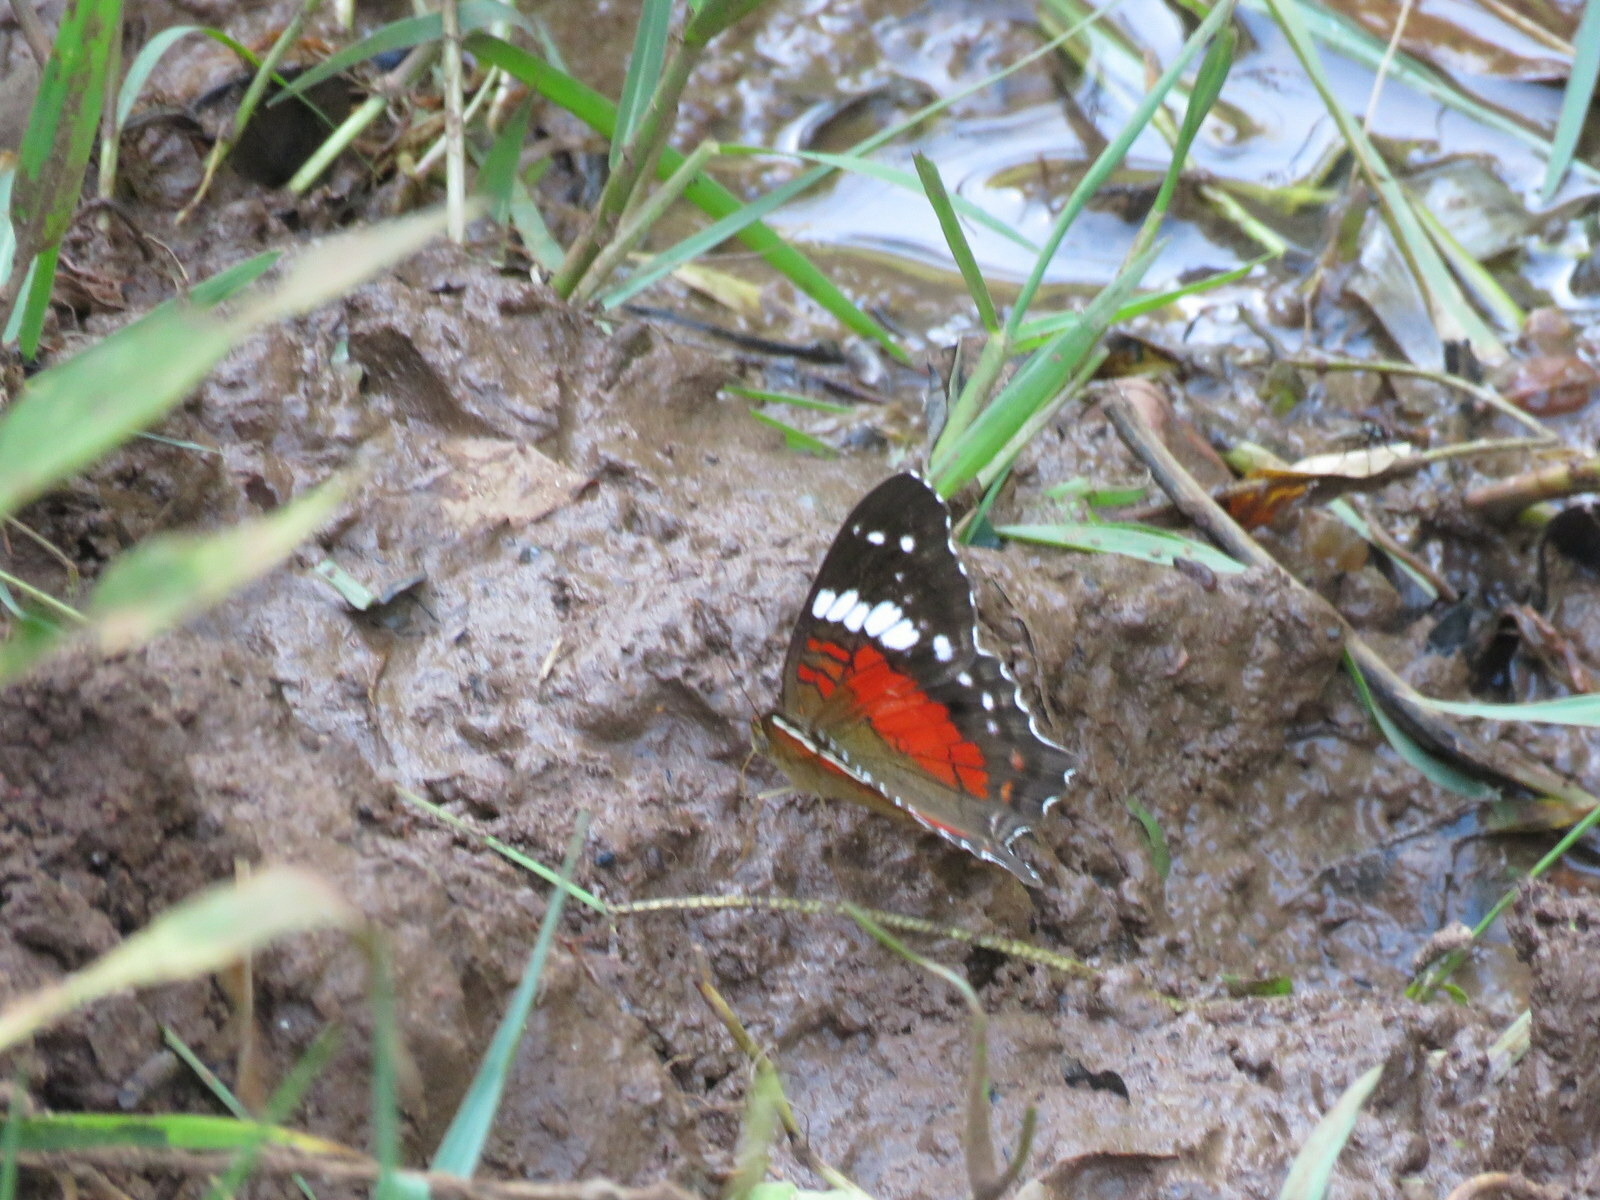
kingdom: Animalia
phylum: Arthropoda
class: Insecta
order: Lepidoptera
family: Nymphalidae
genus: Anartia
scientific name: Anartia amathea
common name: Red peacock
